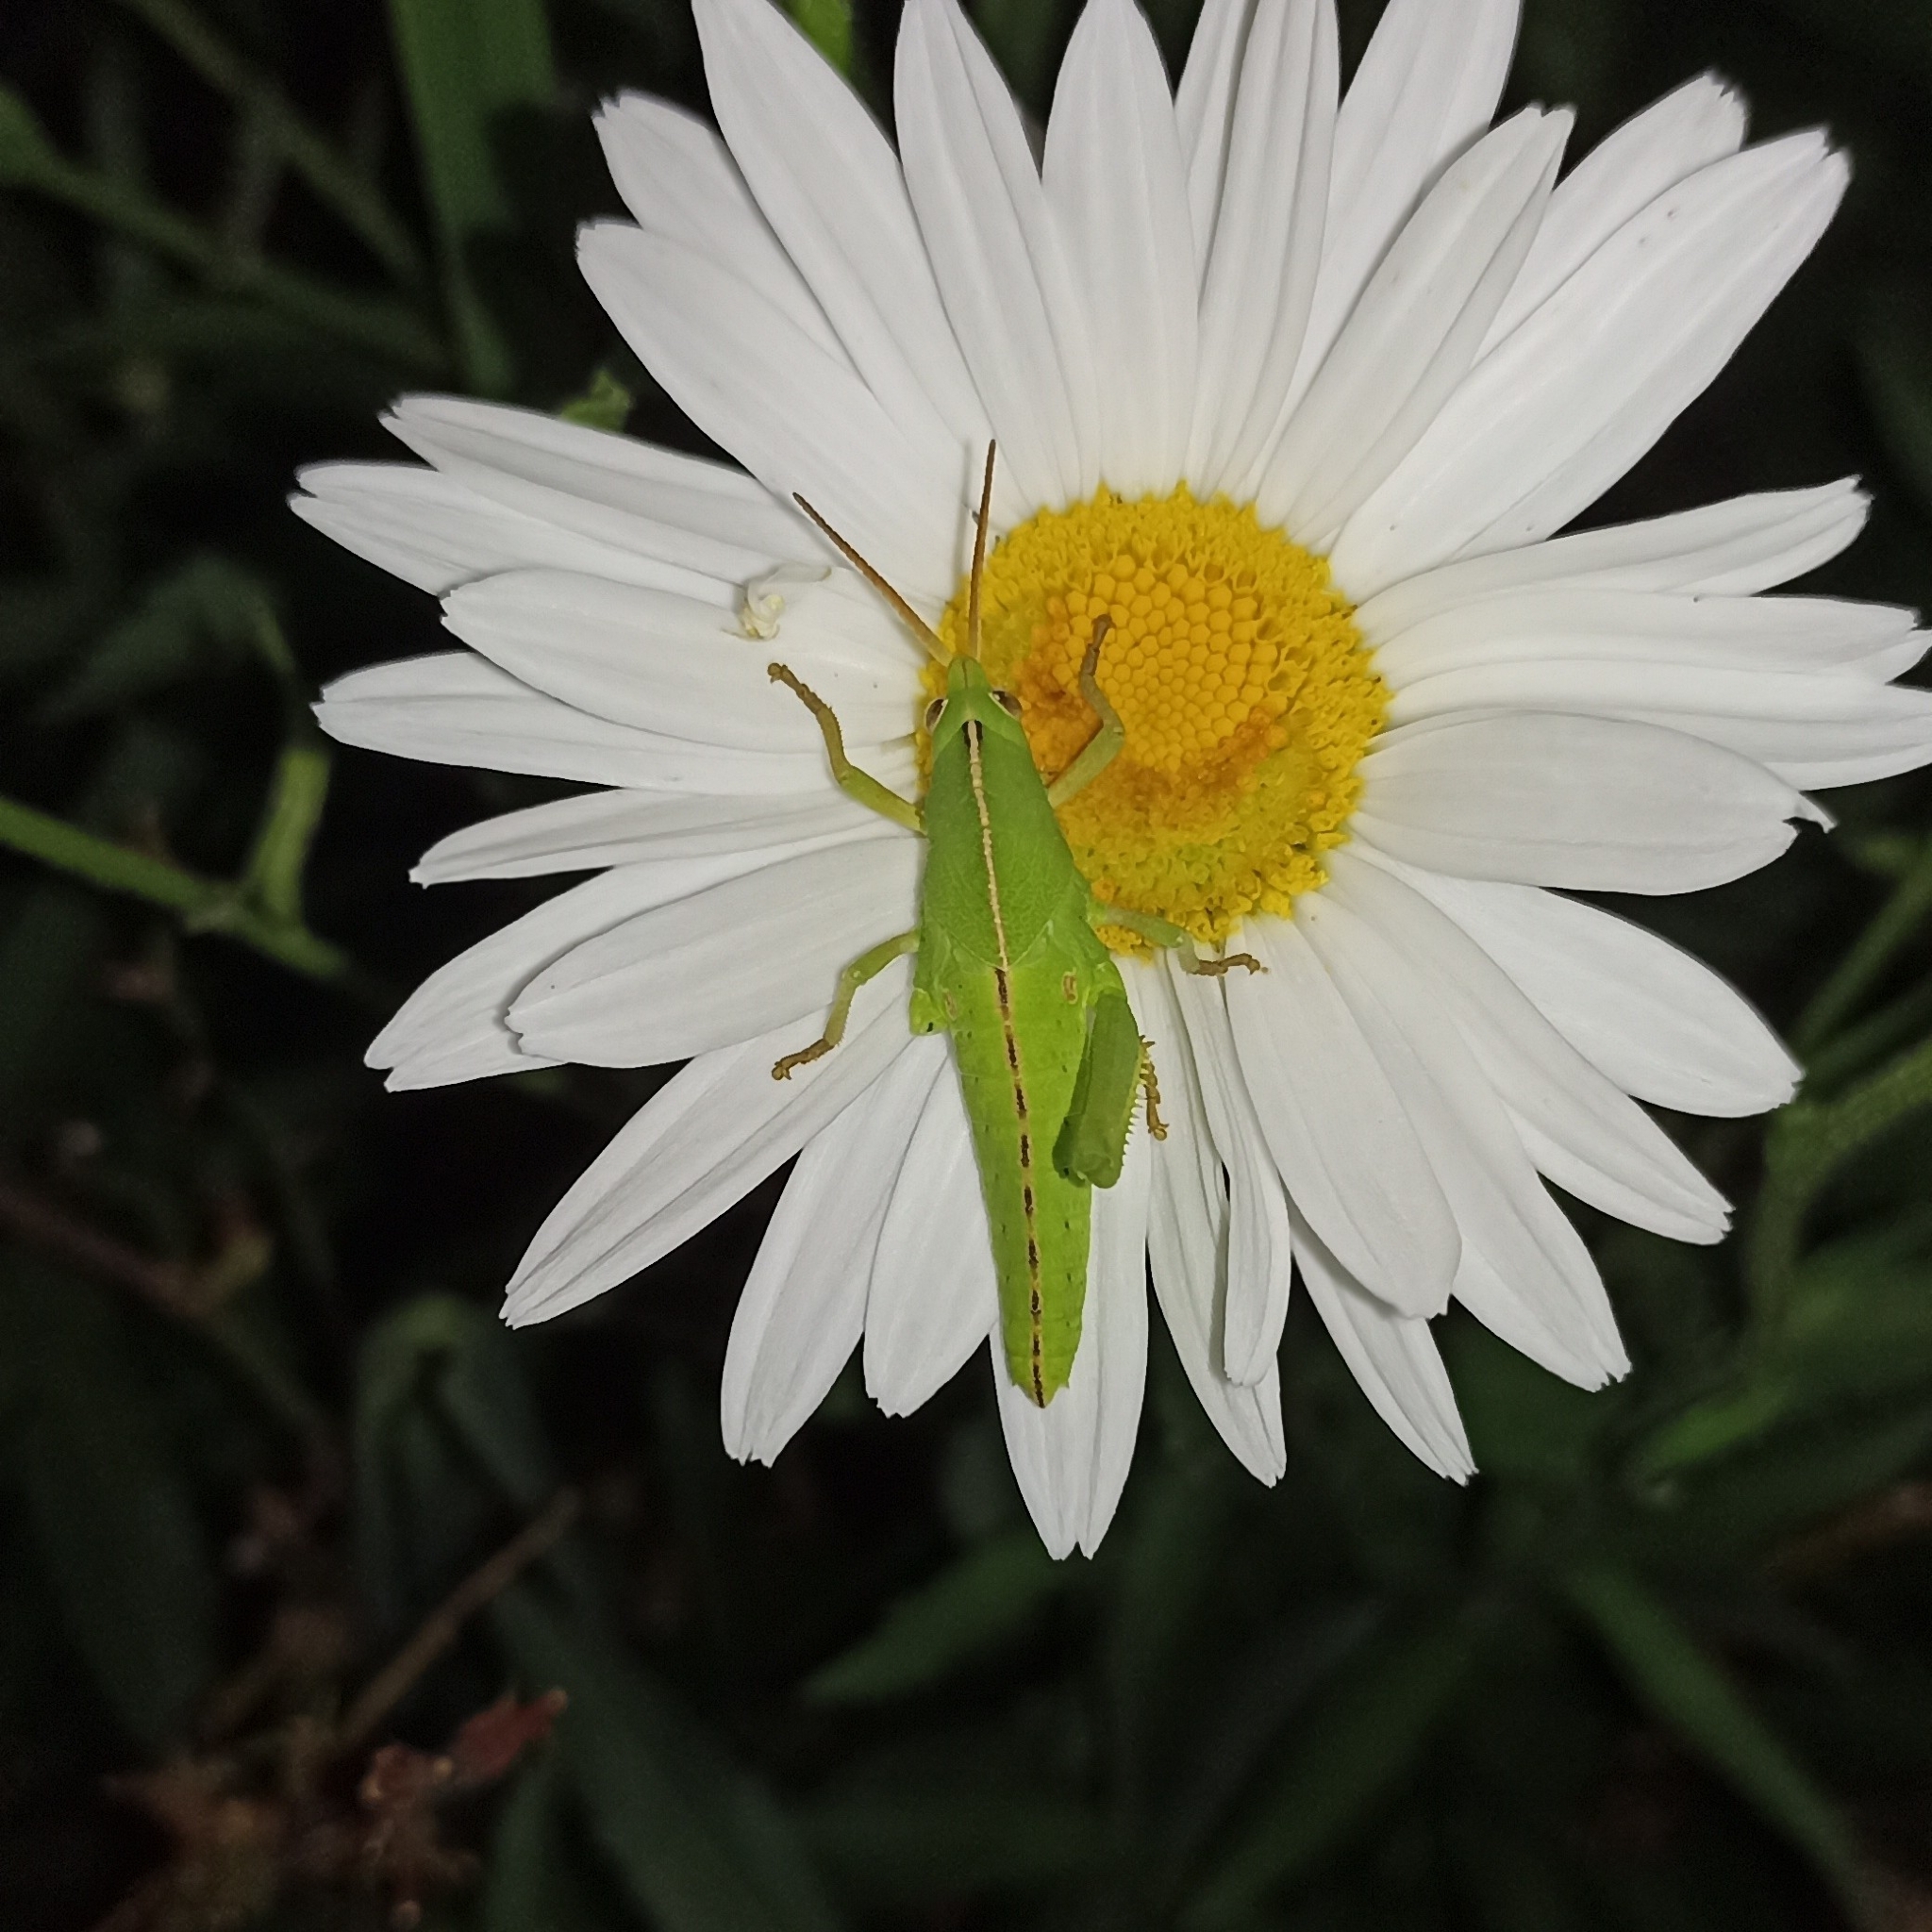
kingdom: Animalia
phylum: Arthropoda
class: Insecta
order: Orthoptera
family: Romaleidae
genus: Staleochlora
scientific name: Staleochlora viridicata
